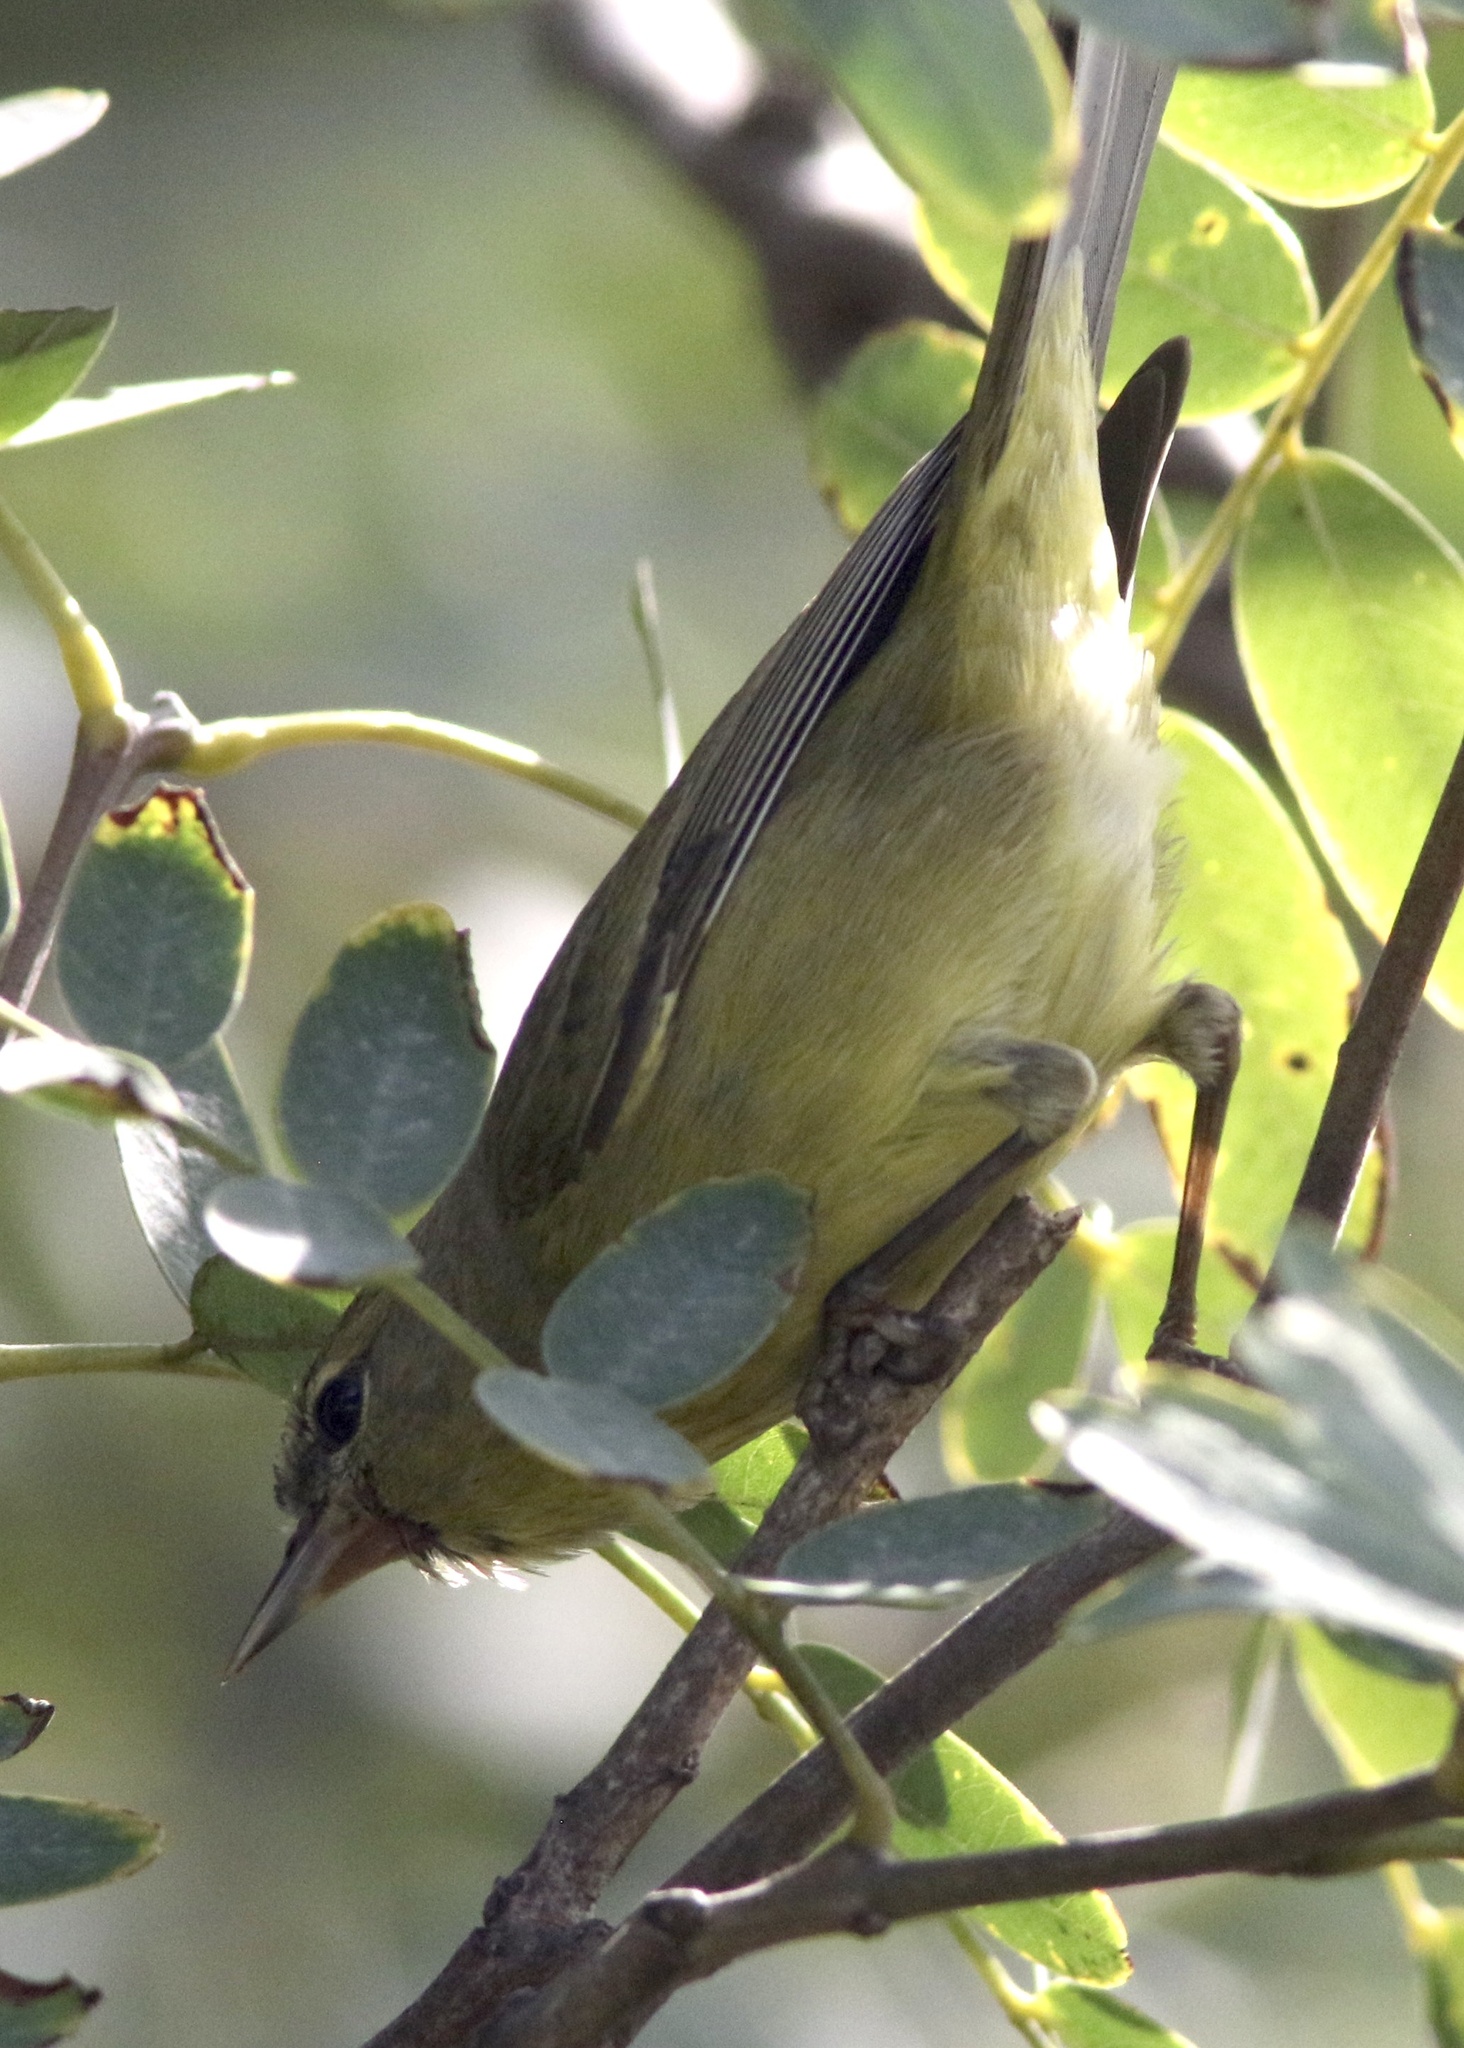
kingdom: Animalia
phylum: Chordata
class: Aves
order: Passeriformes
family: Parulidae
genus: Leiothlypis
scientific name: Leiothlypis celata
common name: Orange-crowned warbler
